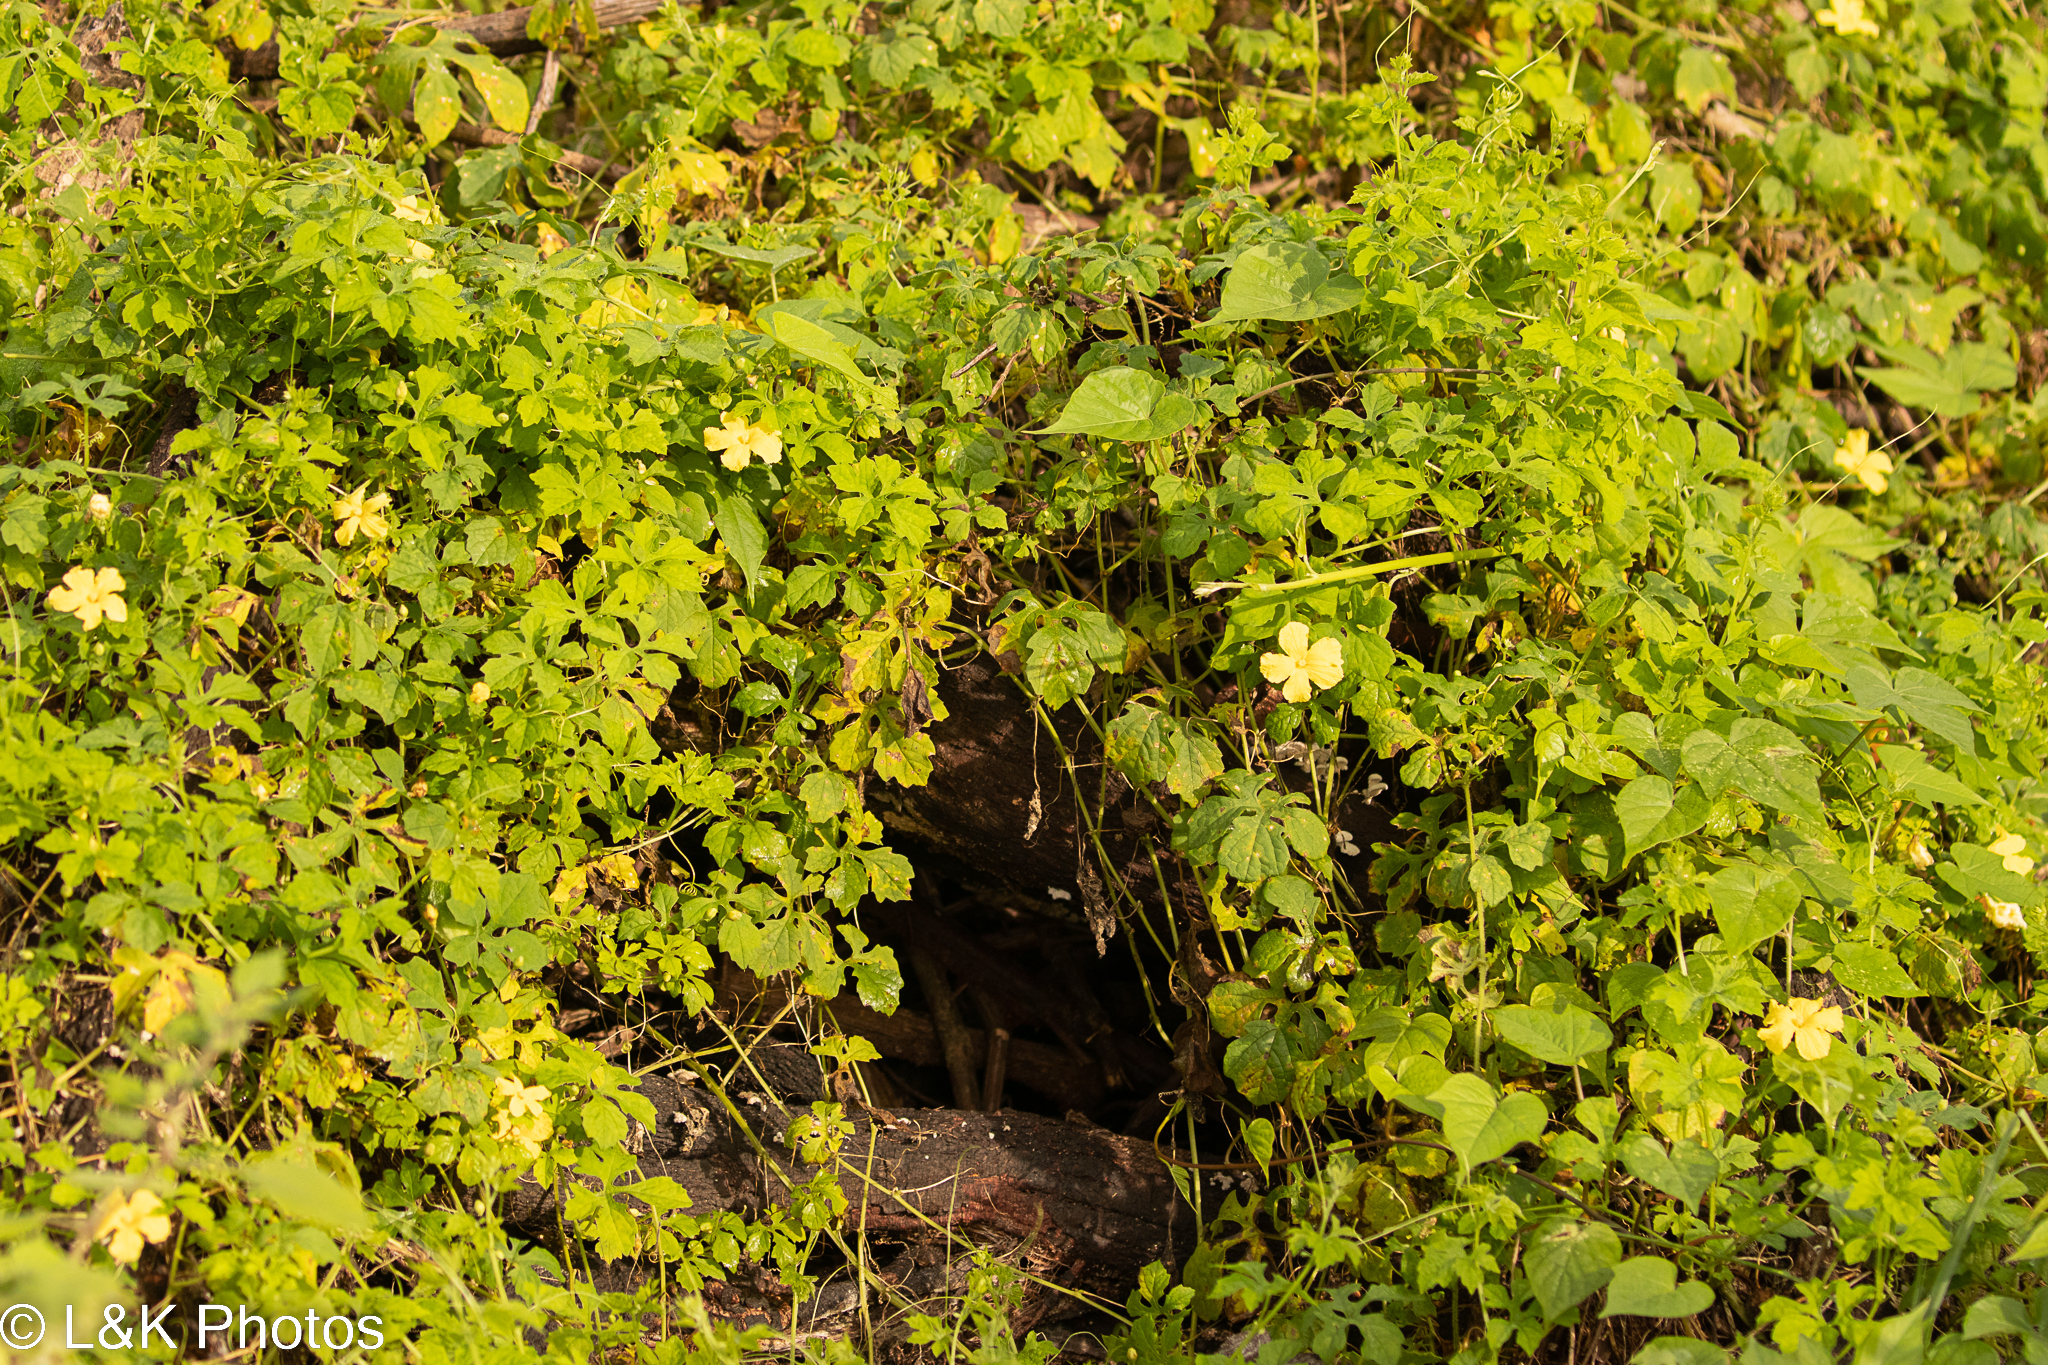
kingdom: Plantae
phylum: Tracheophyta
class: Magnoliopsida
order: Cucurbitales
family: Cucurbitaceae
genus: Momordica
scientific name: Momordica charantia
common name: Balsampear
